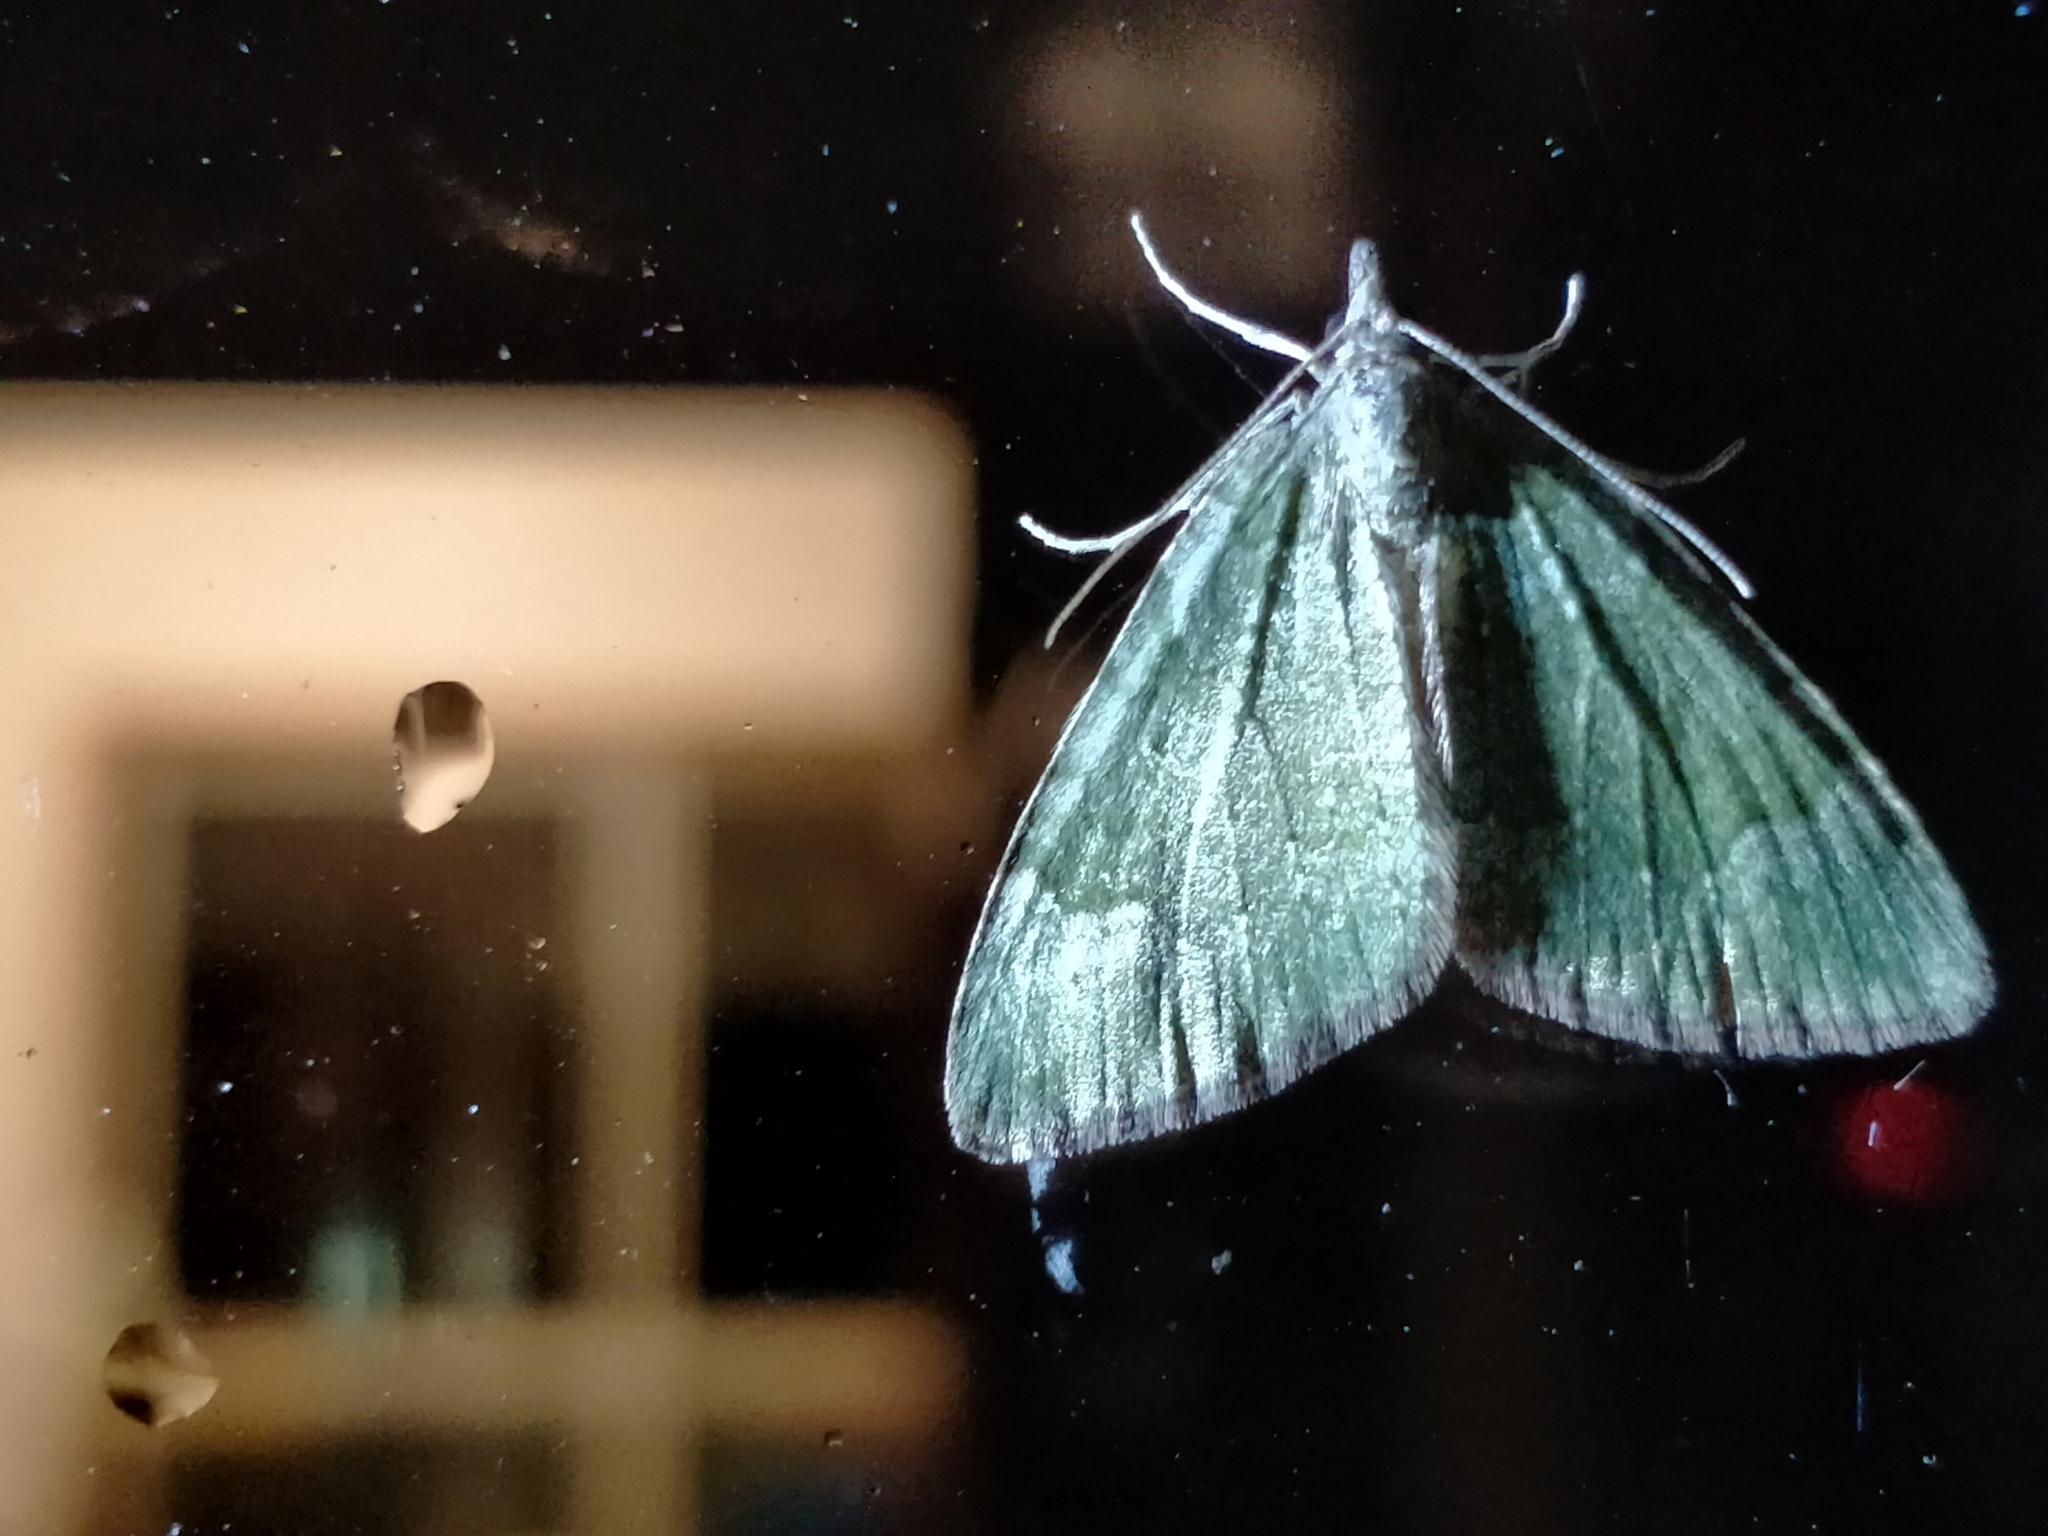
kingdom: Animalia
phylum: Arthropoda
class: Insecta
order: Lepidoptera
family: Geometridae
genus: Epyaxa
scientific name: Epyaxa rosearia
